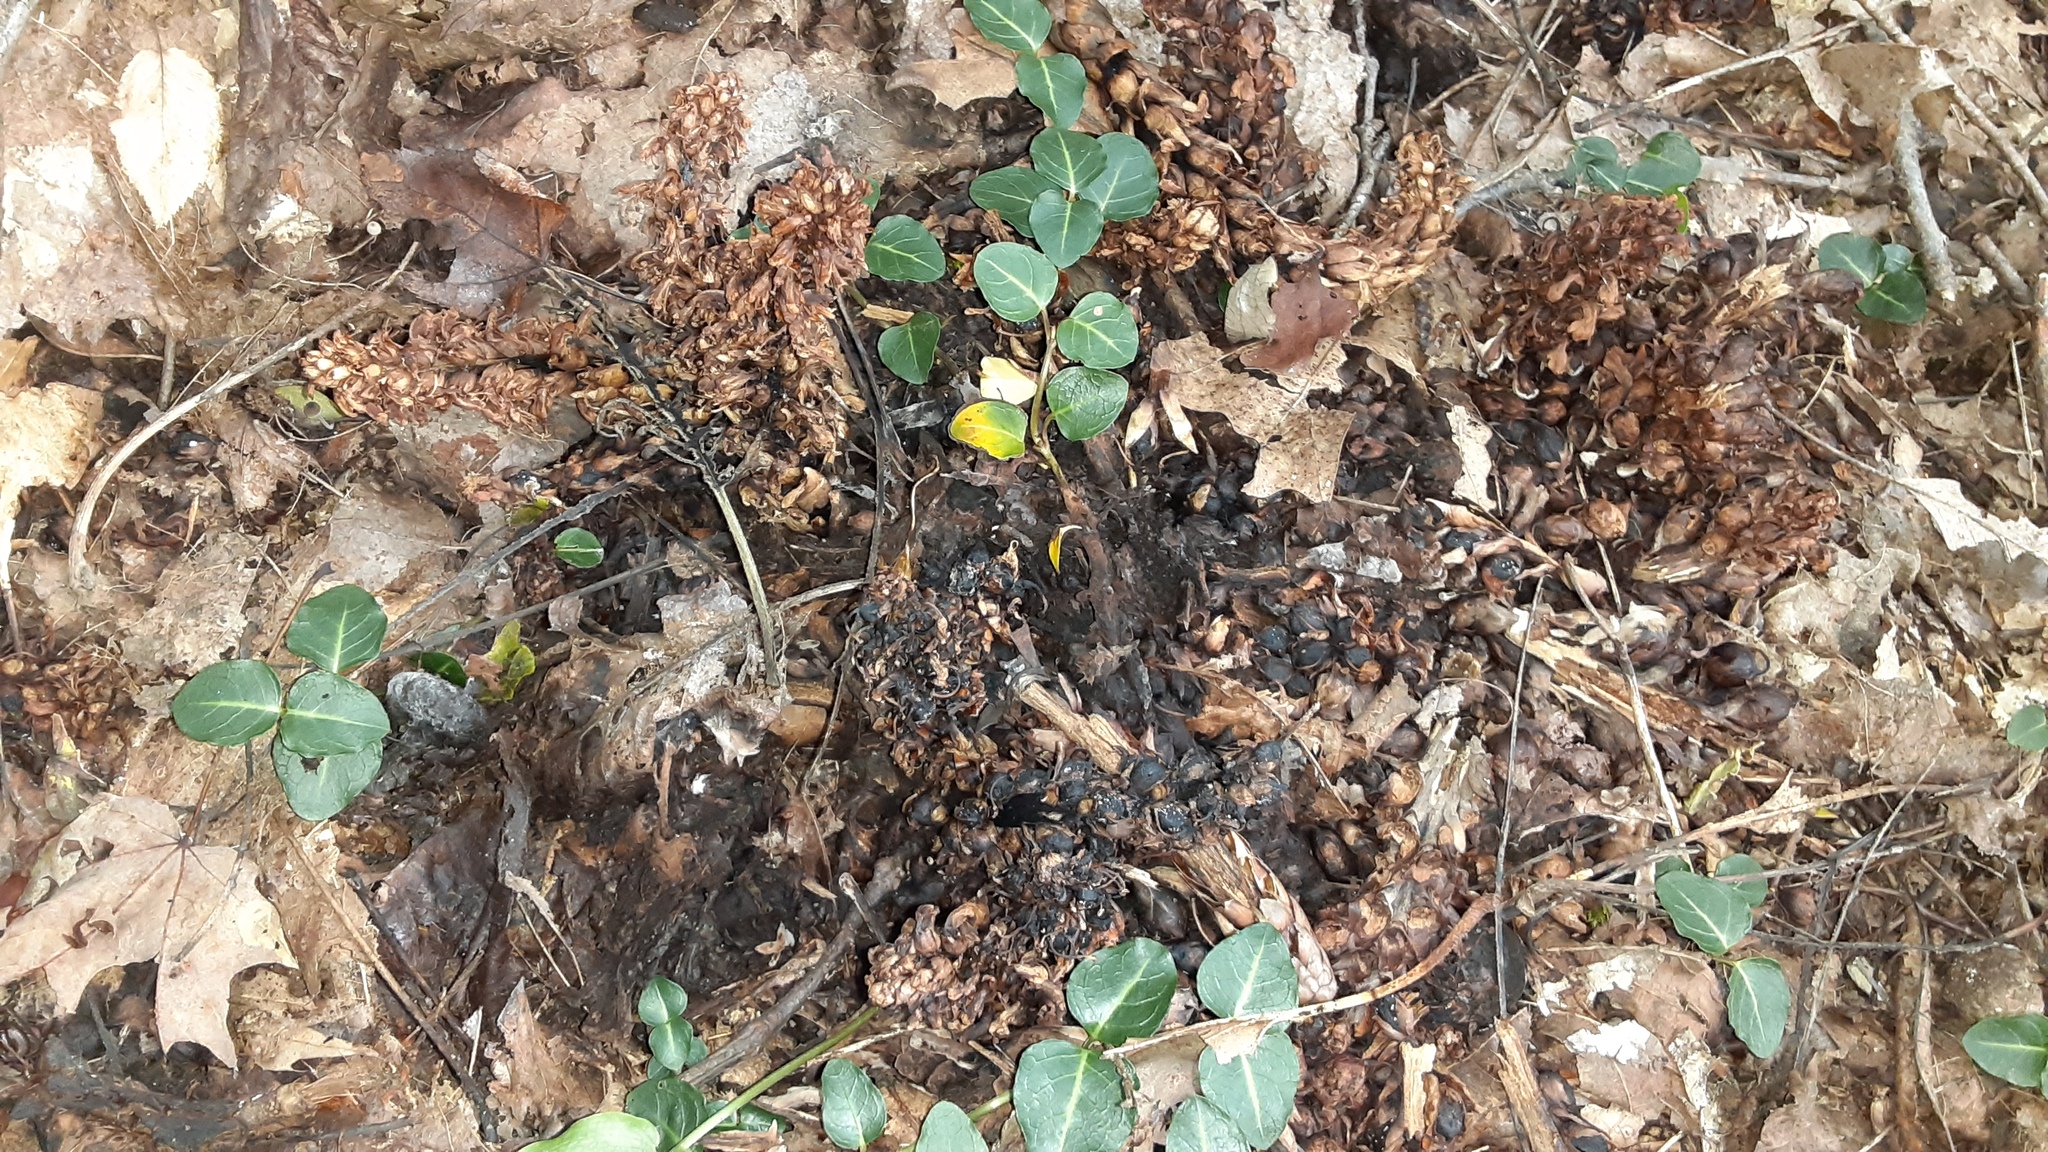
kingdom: Plantae
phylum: Tracheophyta
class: Magnoliopsida
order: Lamiales
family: Orobanchaceae
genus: Conopholis
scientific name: Conopholis americana
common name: American cancer-root
